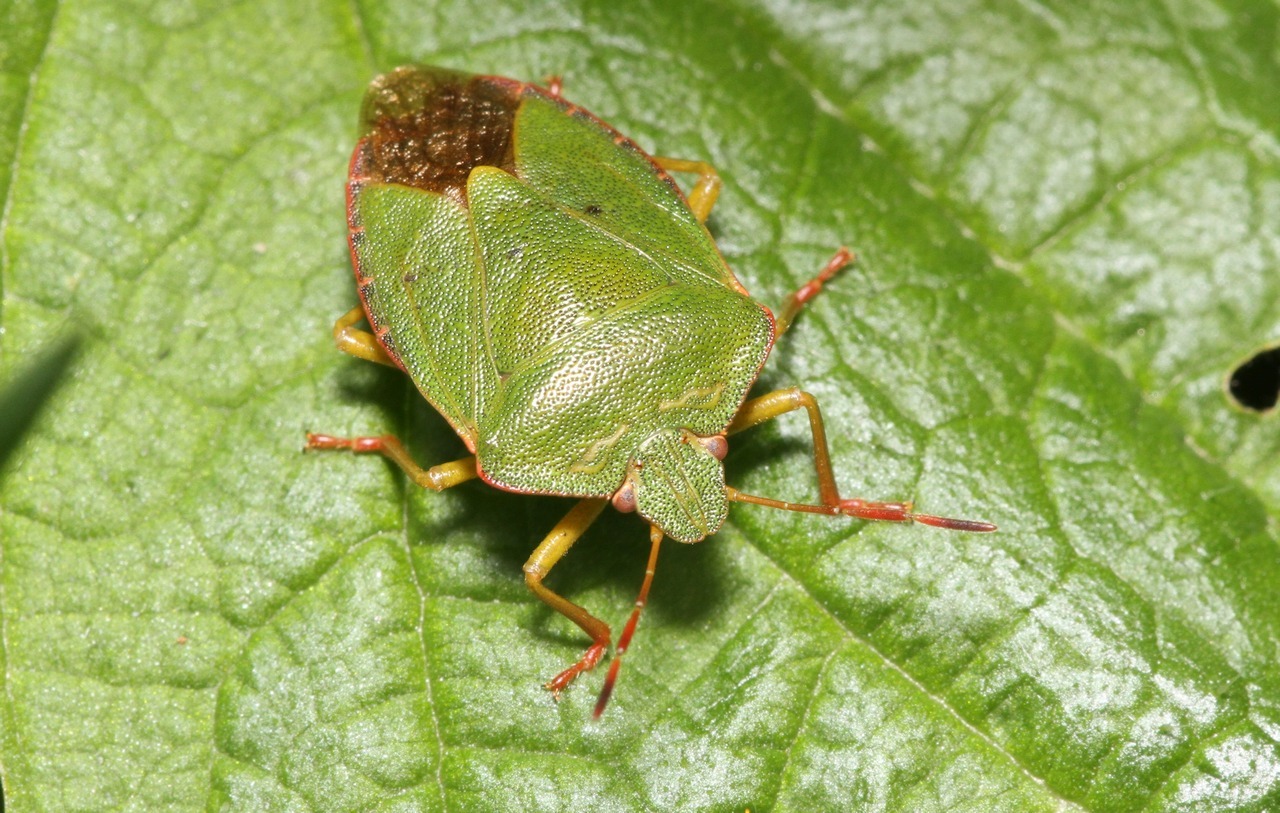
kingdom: Animalia
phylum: Arthropoda
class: Insecta
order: Hemiptera
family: Pentatomidae
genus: Palomena
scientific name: Palomena prasina
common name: Green shieldbug
